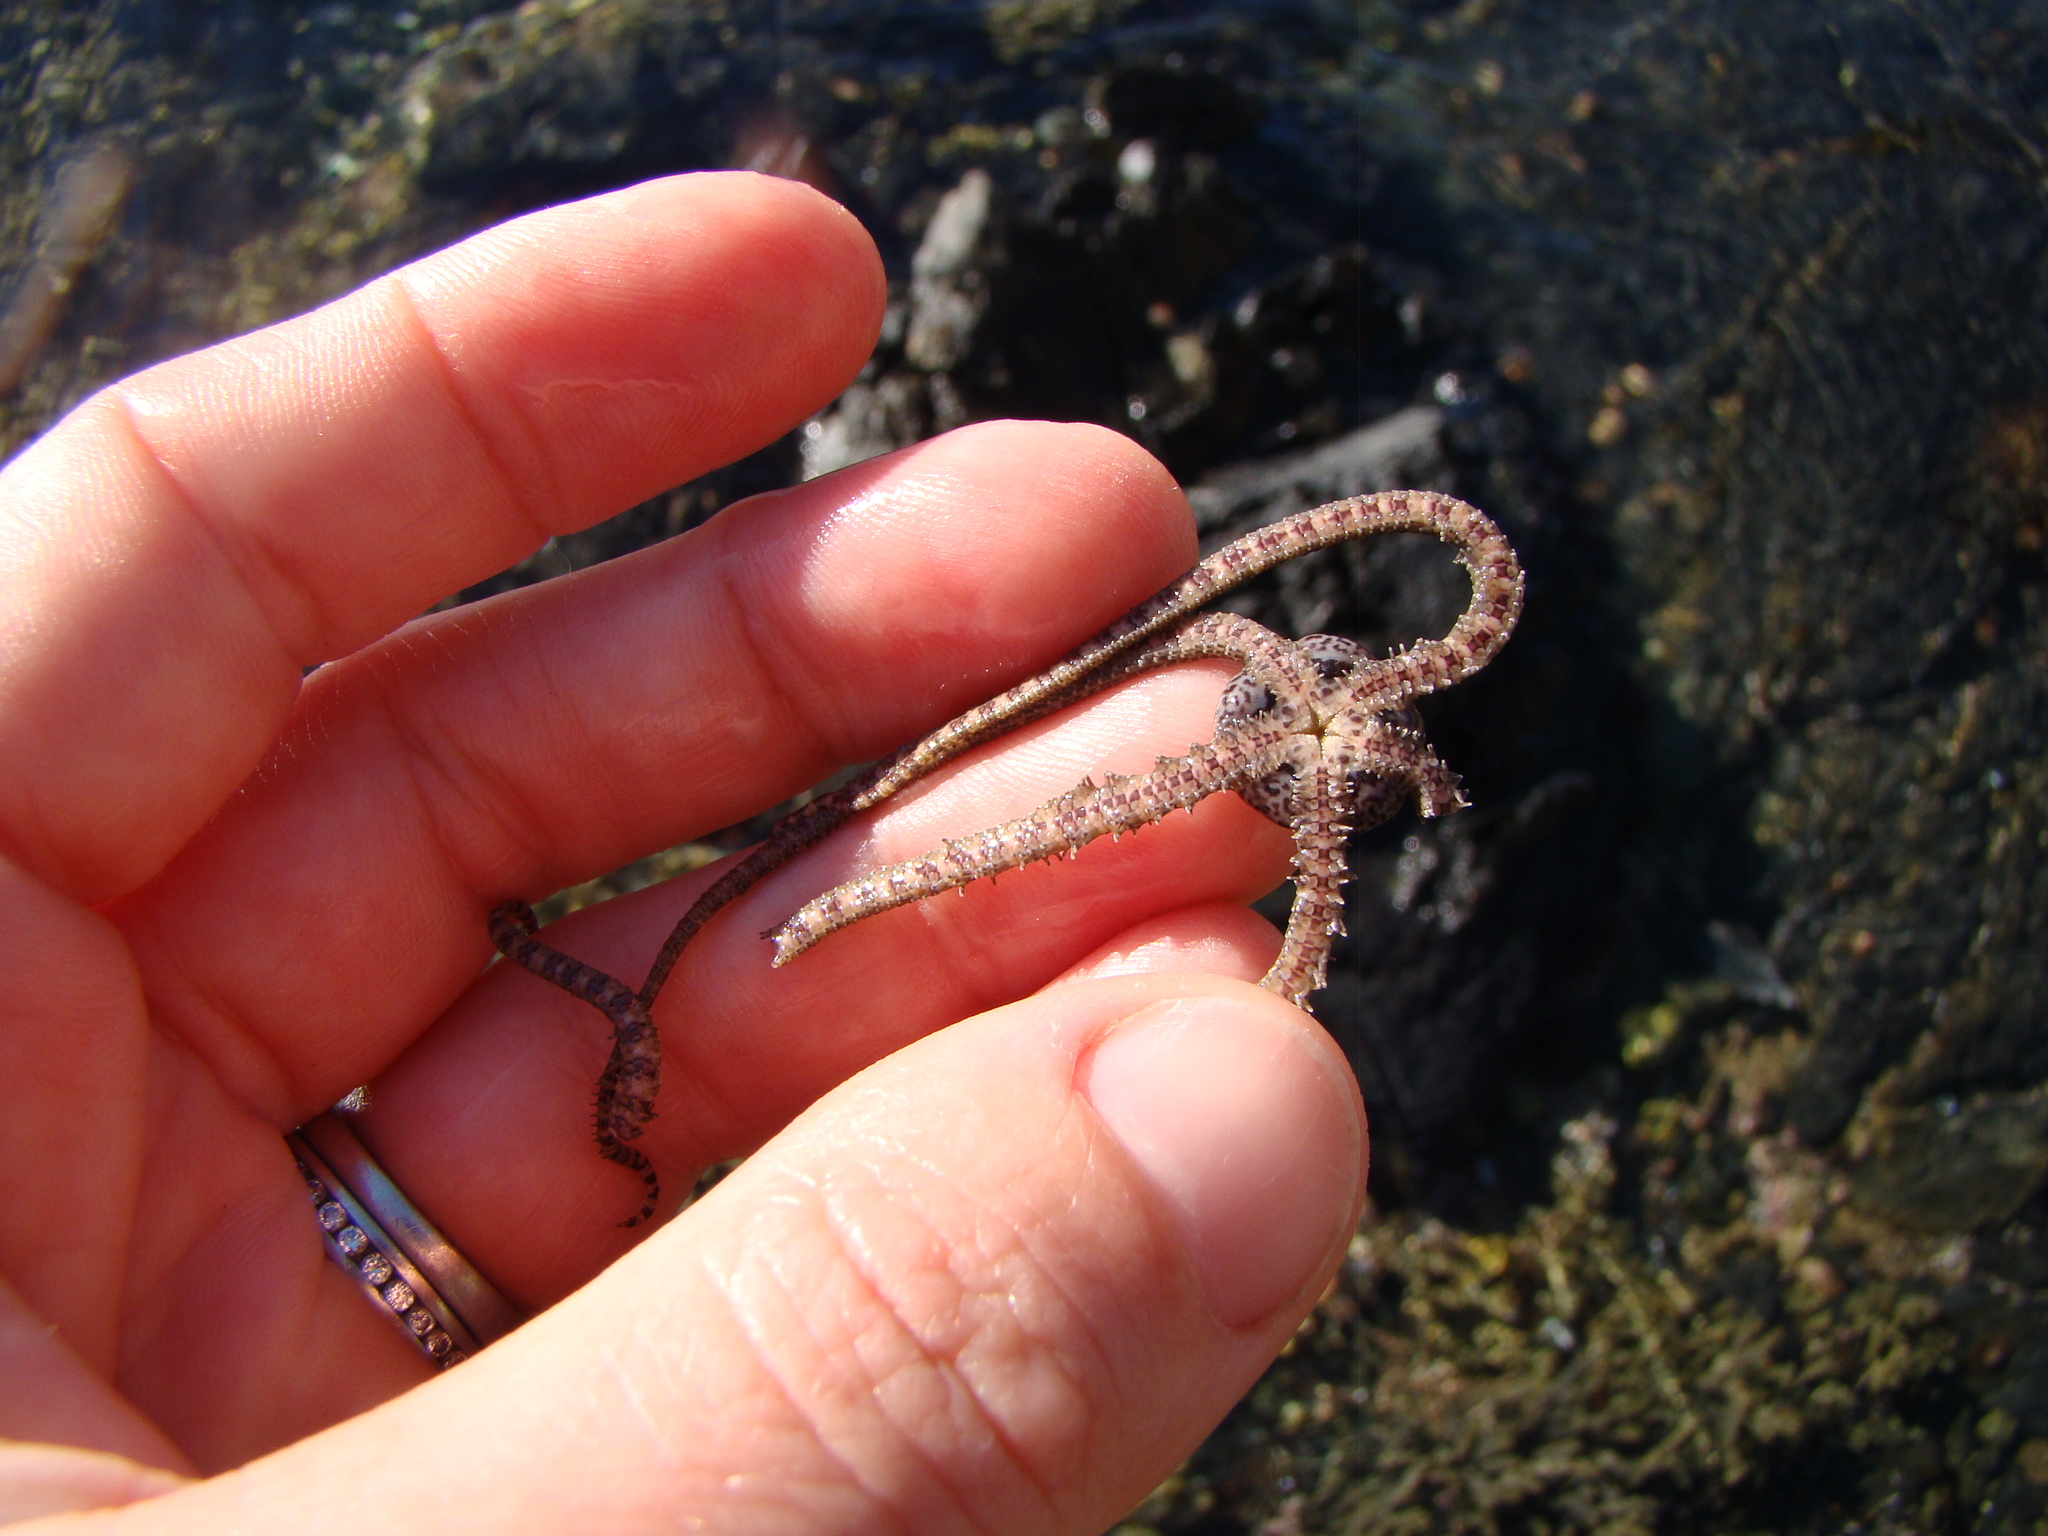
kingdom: Animalia
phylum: Echinodermata
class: Ophiuroidea
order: Amphilepidida
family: Ophionereididae
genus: Ophionereis
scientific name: Ophionereis fasciata
